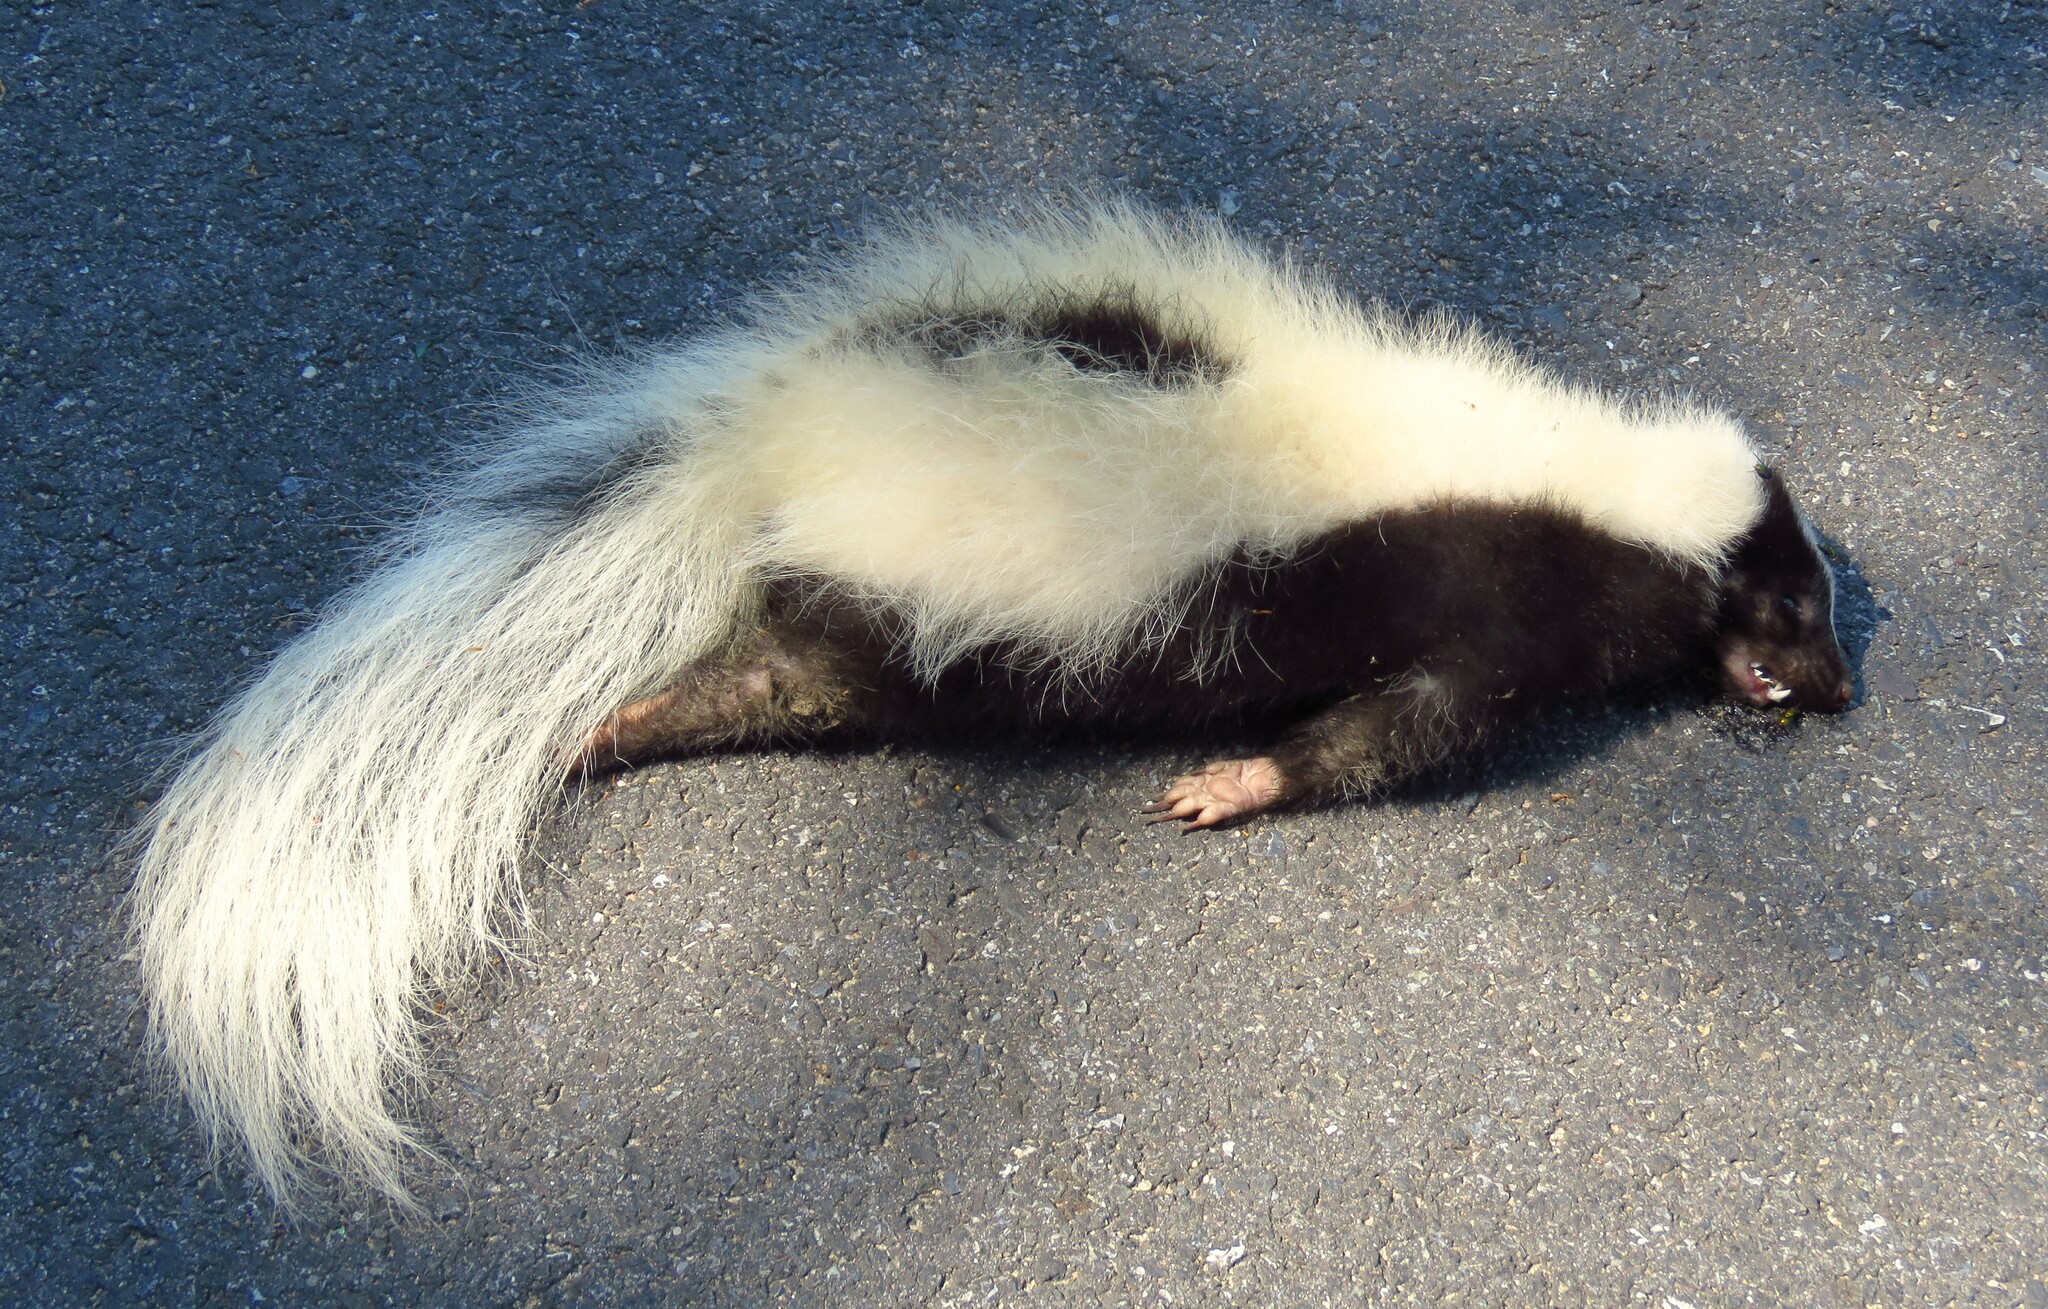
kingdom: Animalia
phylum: Chordata
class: Mammalia
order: Carnivora
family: Mephitidae
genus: Mephitis
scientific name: Mephitis mephitis
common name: Striped skunk
